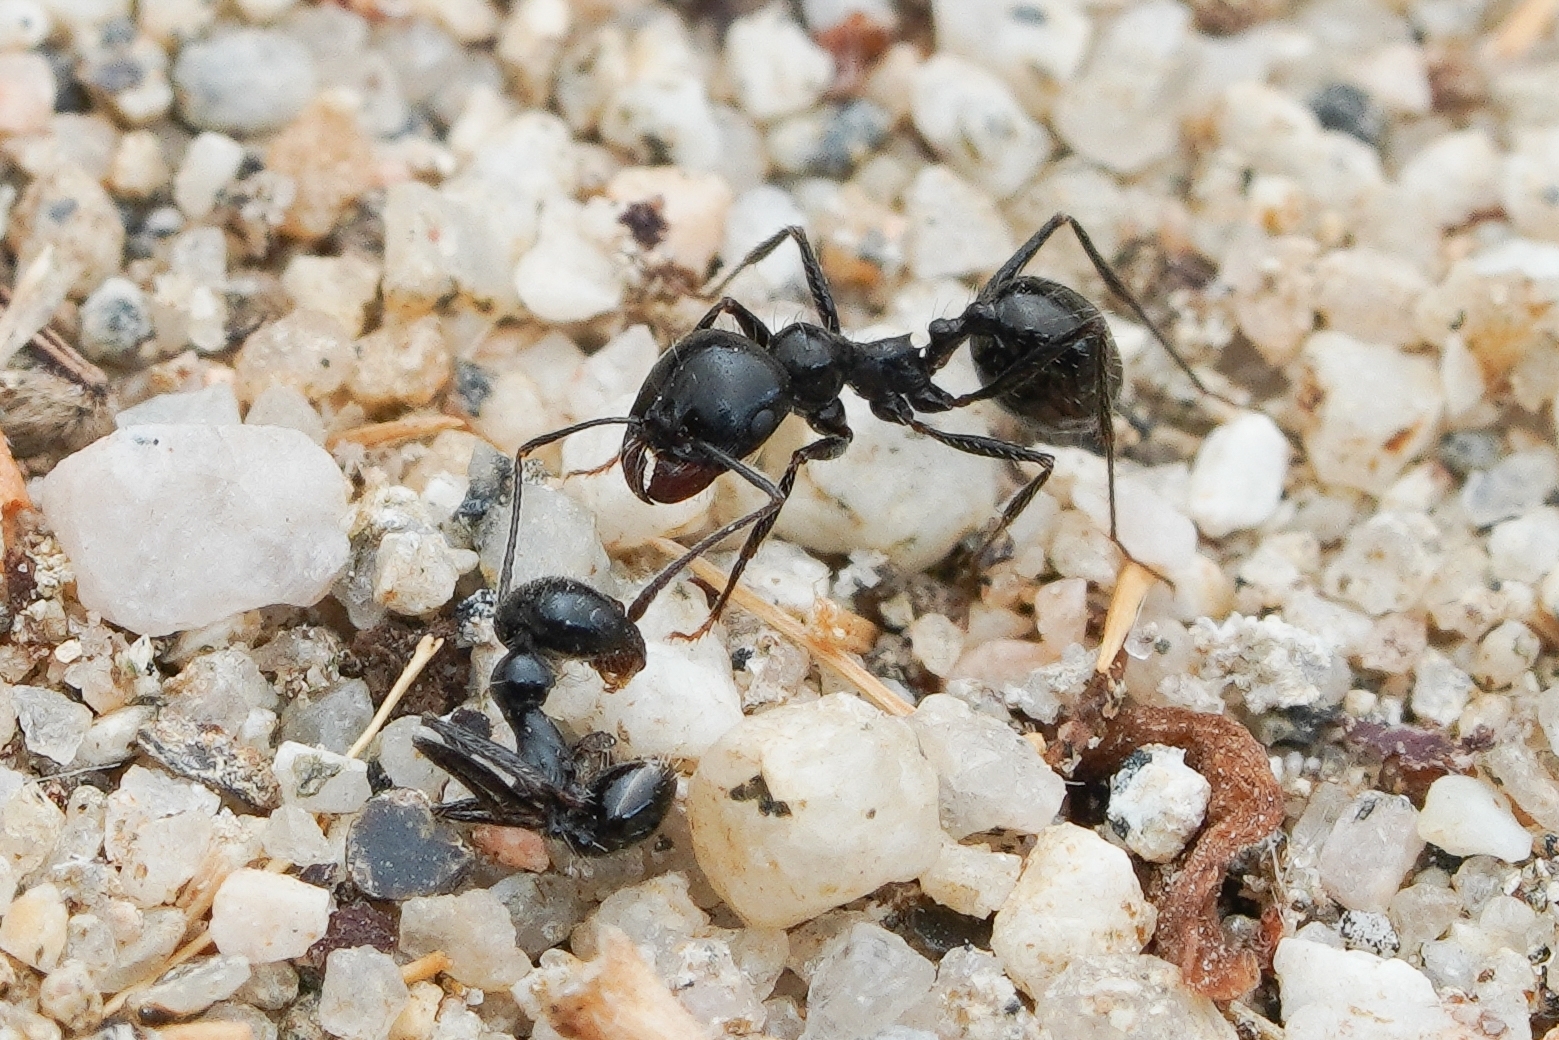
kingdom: Animalia
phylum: Arthropoda
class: Insecta
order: Hymenoptera
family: Formicidae
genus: Messor
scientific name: Messor pergandei
